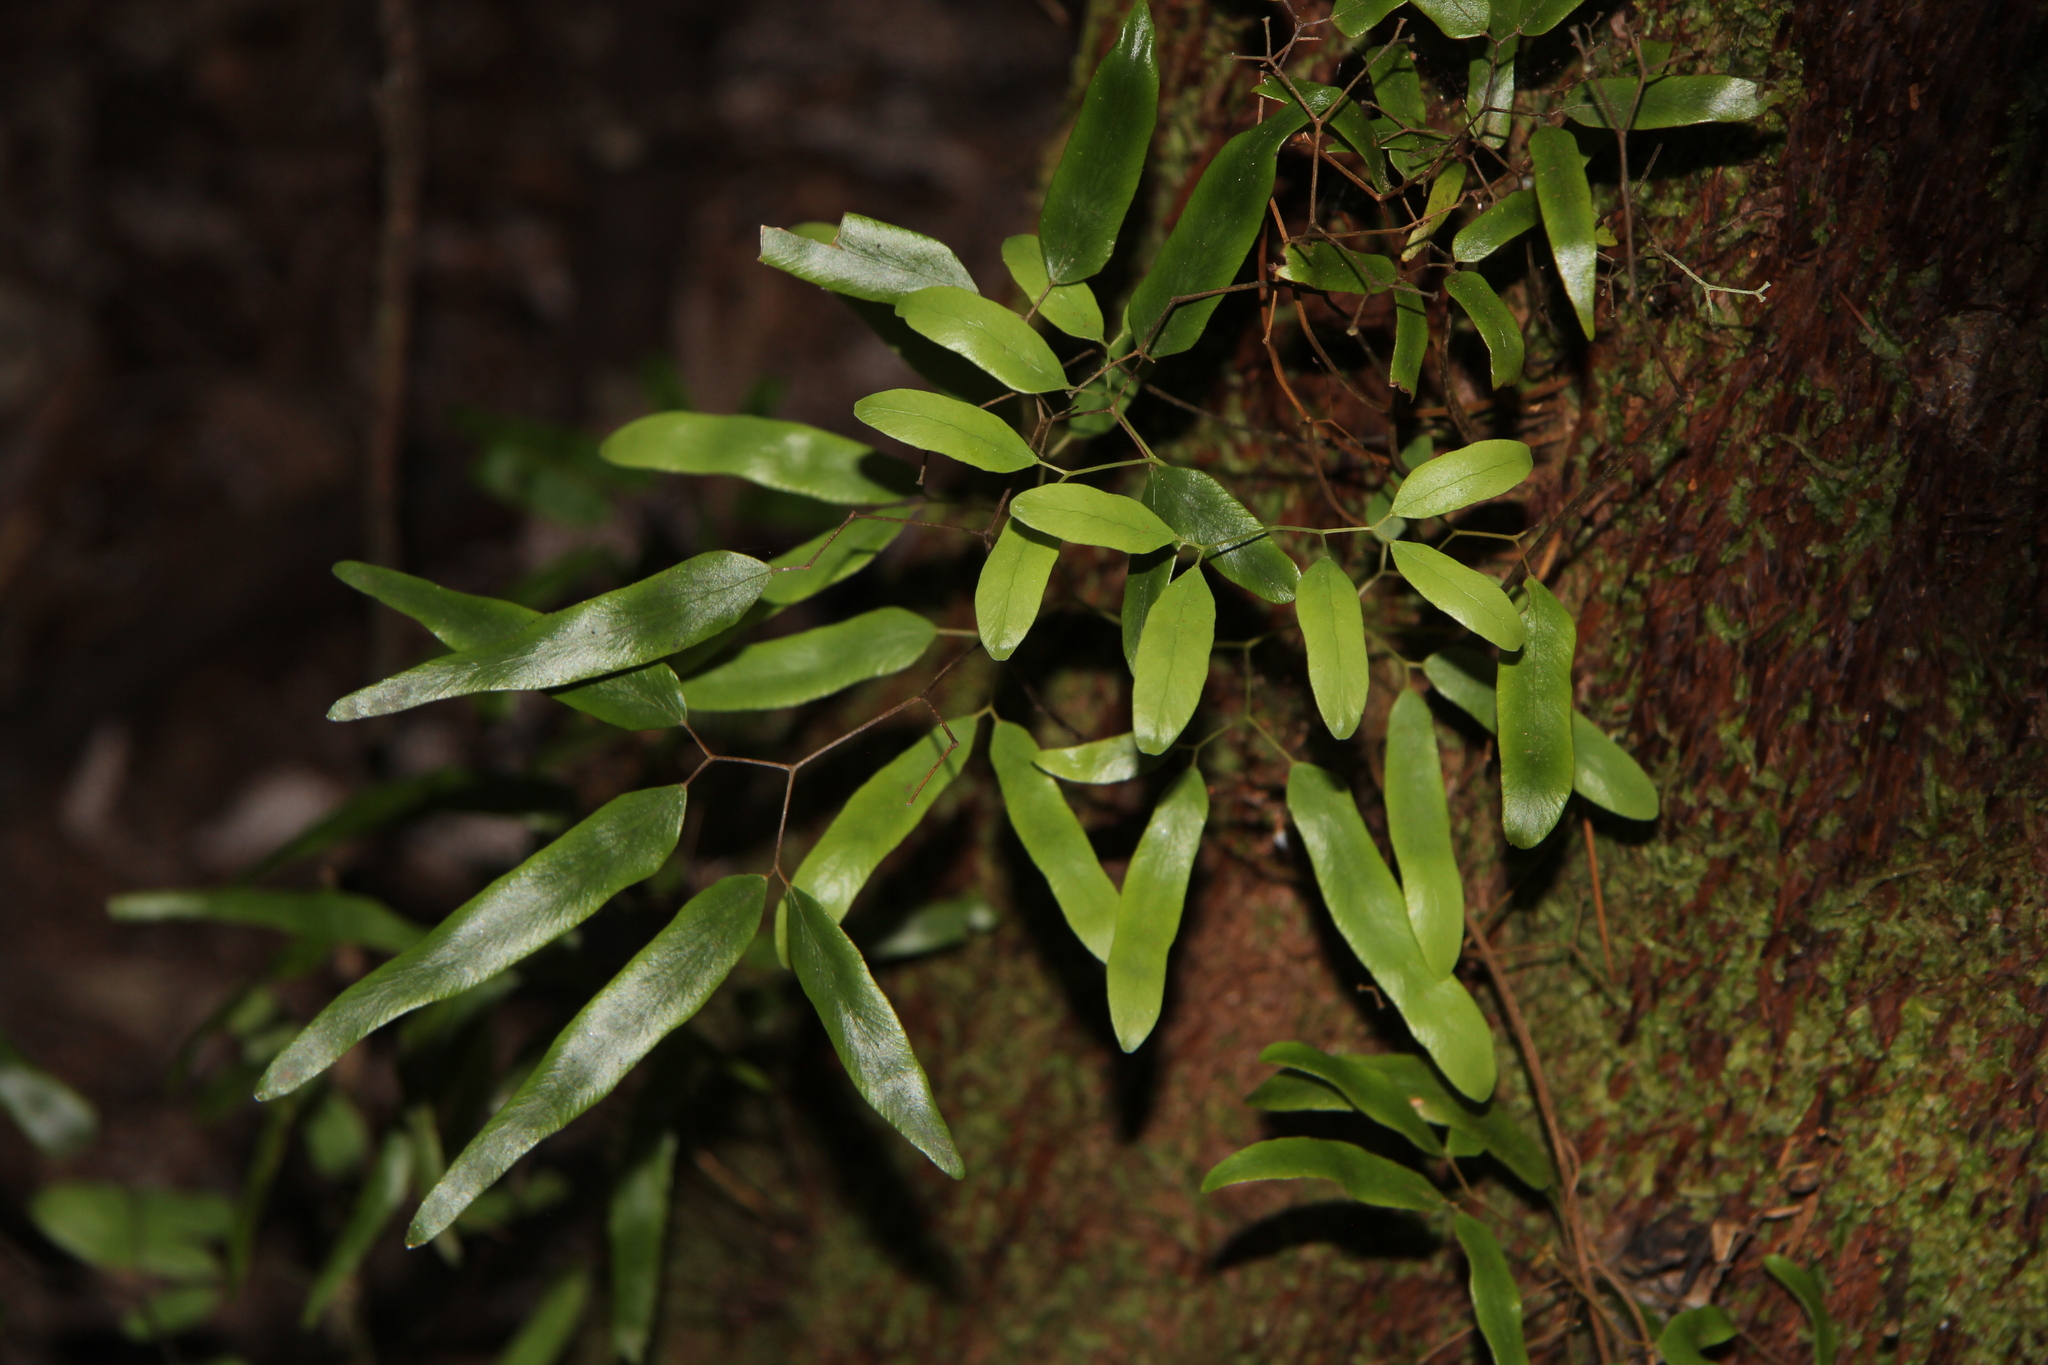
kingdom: Plantae
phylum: Tracheophyta
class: Polypodiopsida
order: Schizaeales
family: Lygodiaceae
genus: Lygodium
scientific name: Lygodium articulatum
